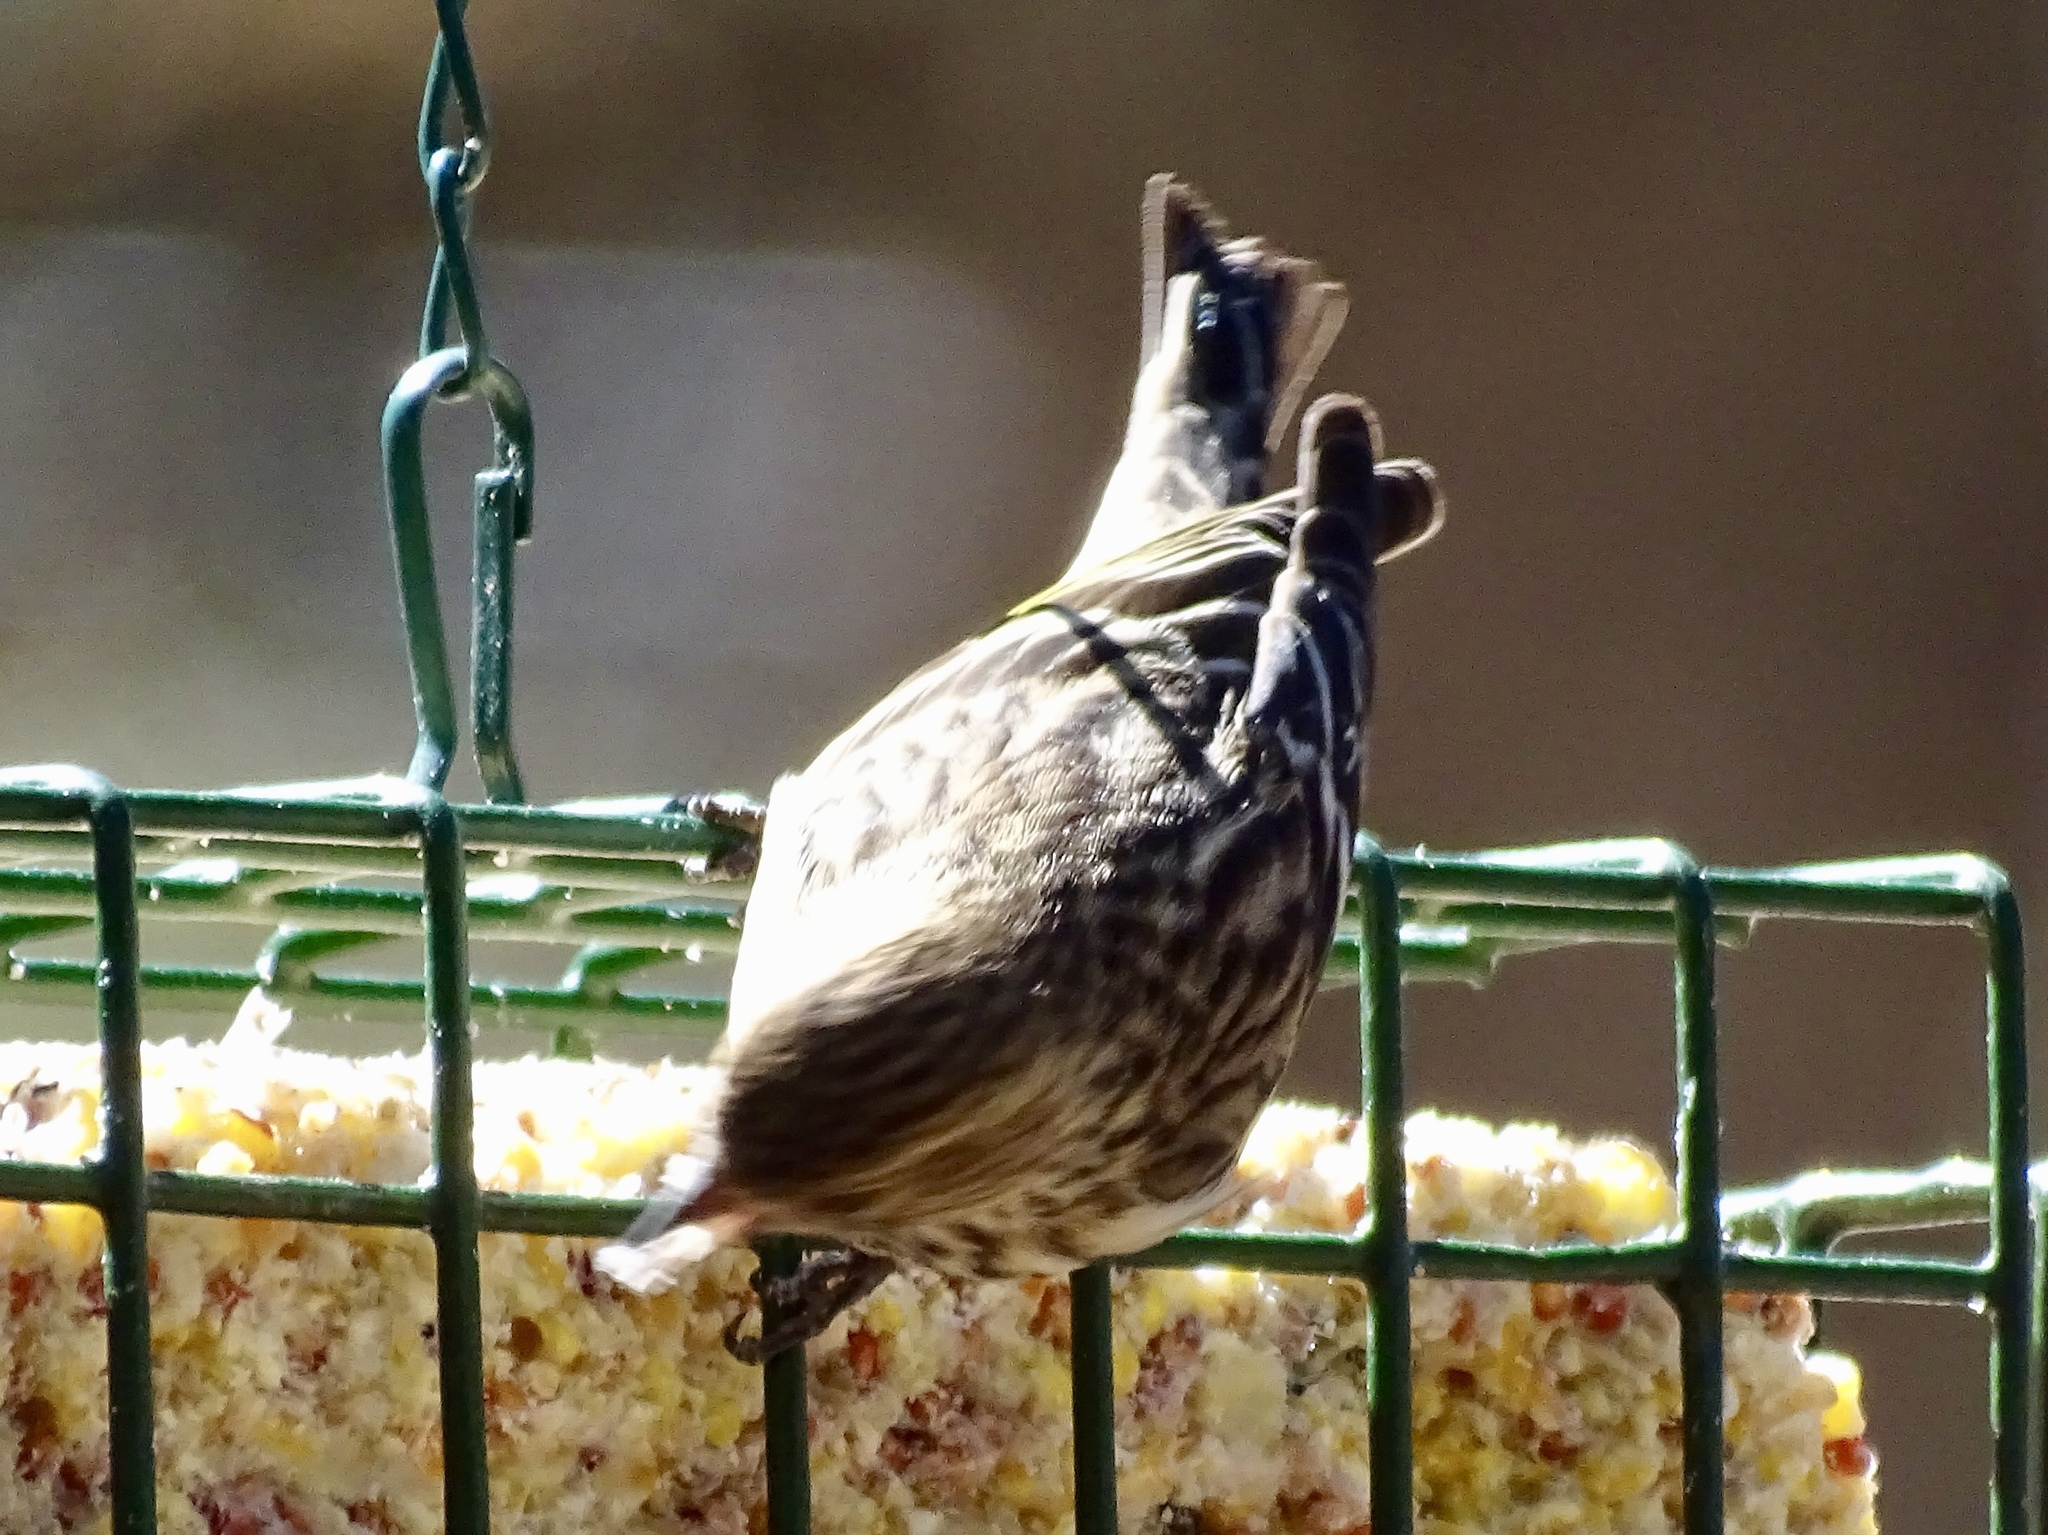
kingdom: Animalia
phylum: Chordata
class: Aves
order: Passeriformes
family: Fringillidae
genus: Spinus
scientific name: Spinus pinus
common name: Pine siskin
